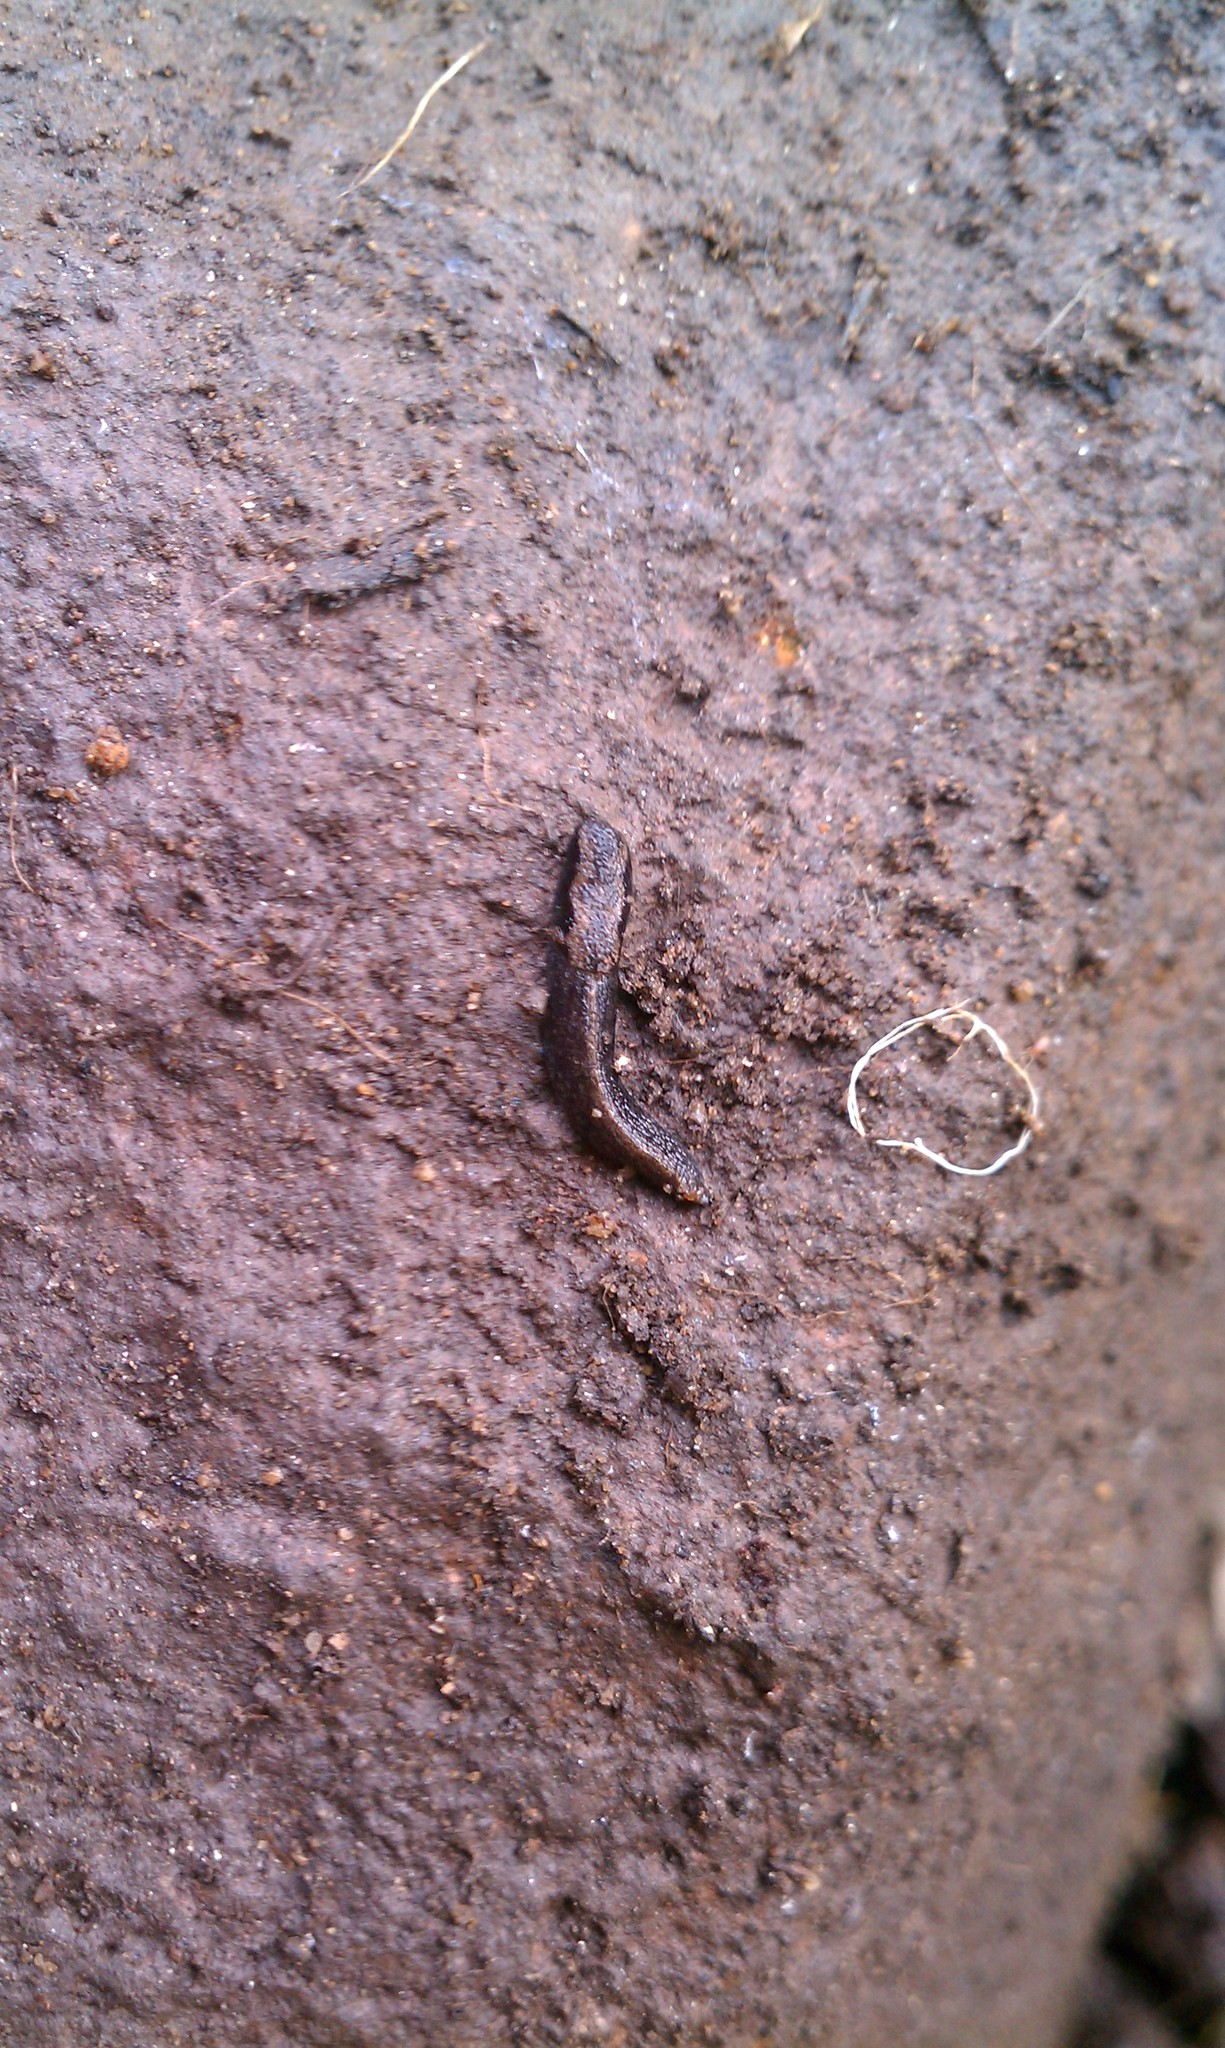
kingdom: Animalia
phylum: Mollusca
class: Gastropoda
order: Stylommatophora
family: Ariolimacidae
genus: Anadenulus
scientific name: Anadenulus cockerelli
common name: American keeled slug
